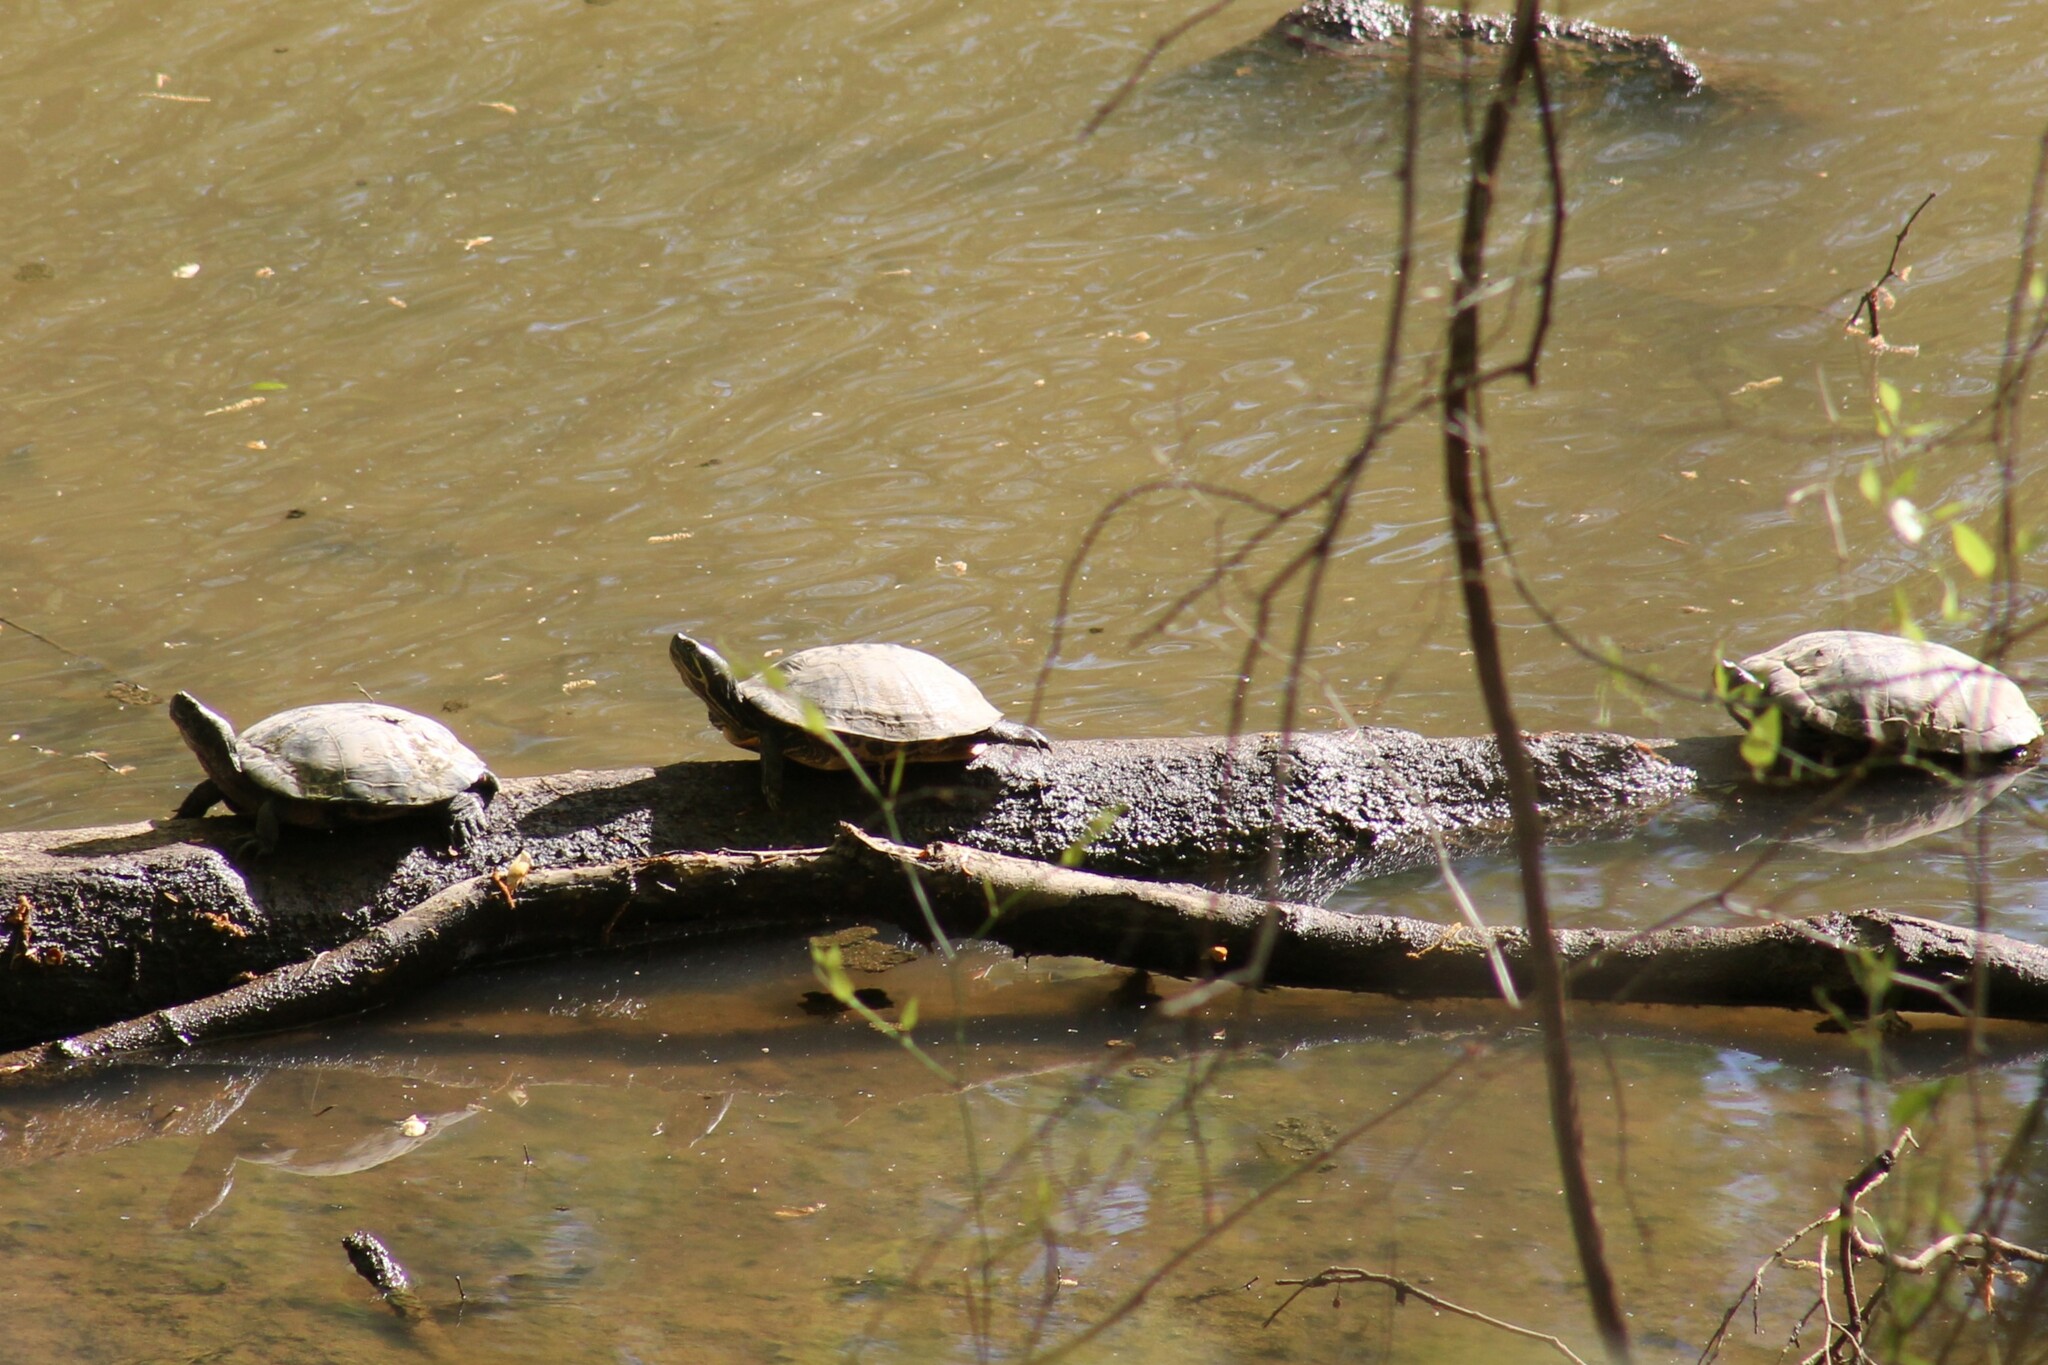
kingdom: Animalia
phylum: Chordata
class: Testudines
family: Emydidae
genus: Trachemys
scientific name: Trachemys scripta
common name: Slider
